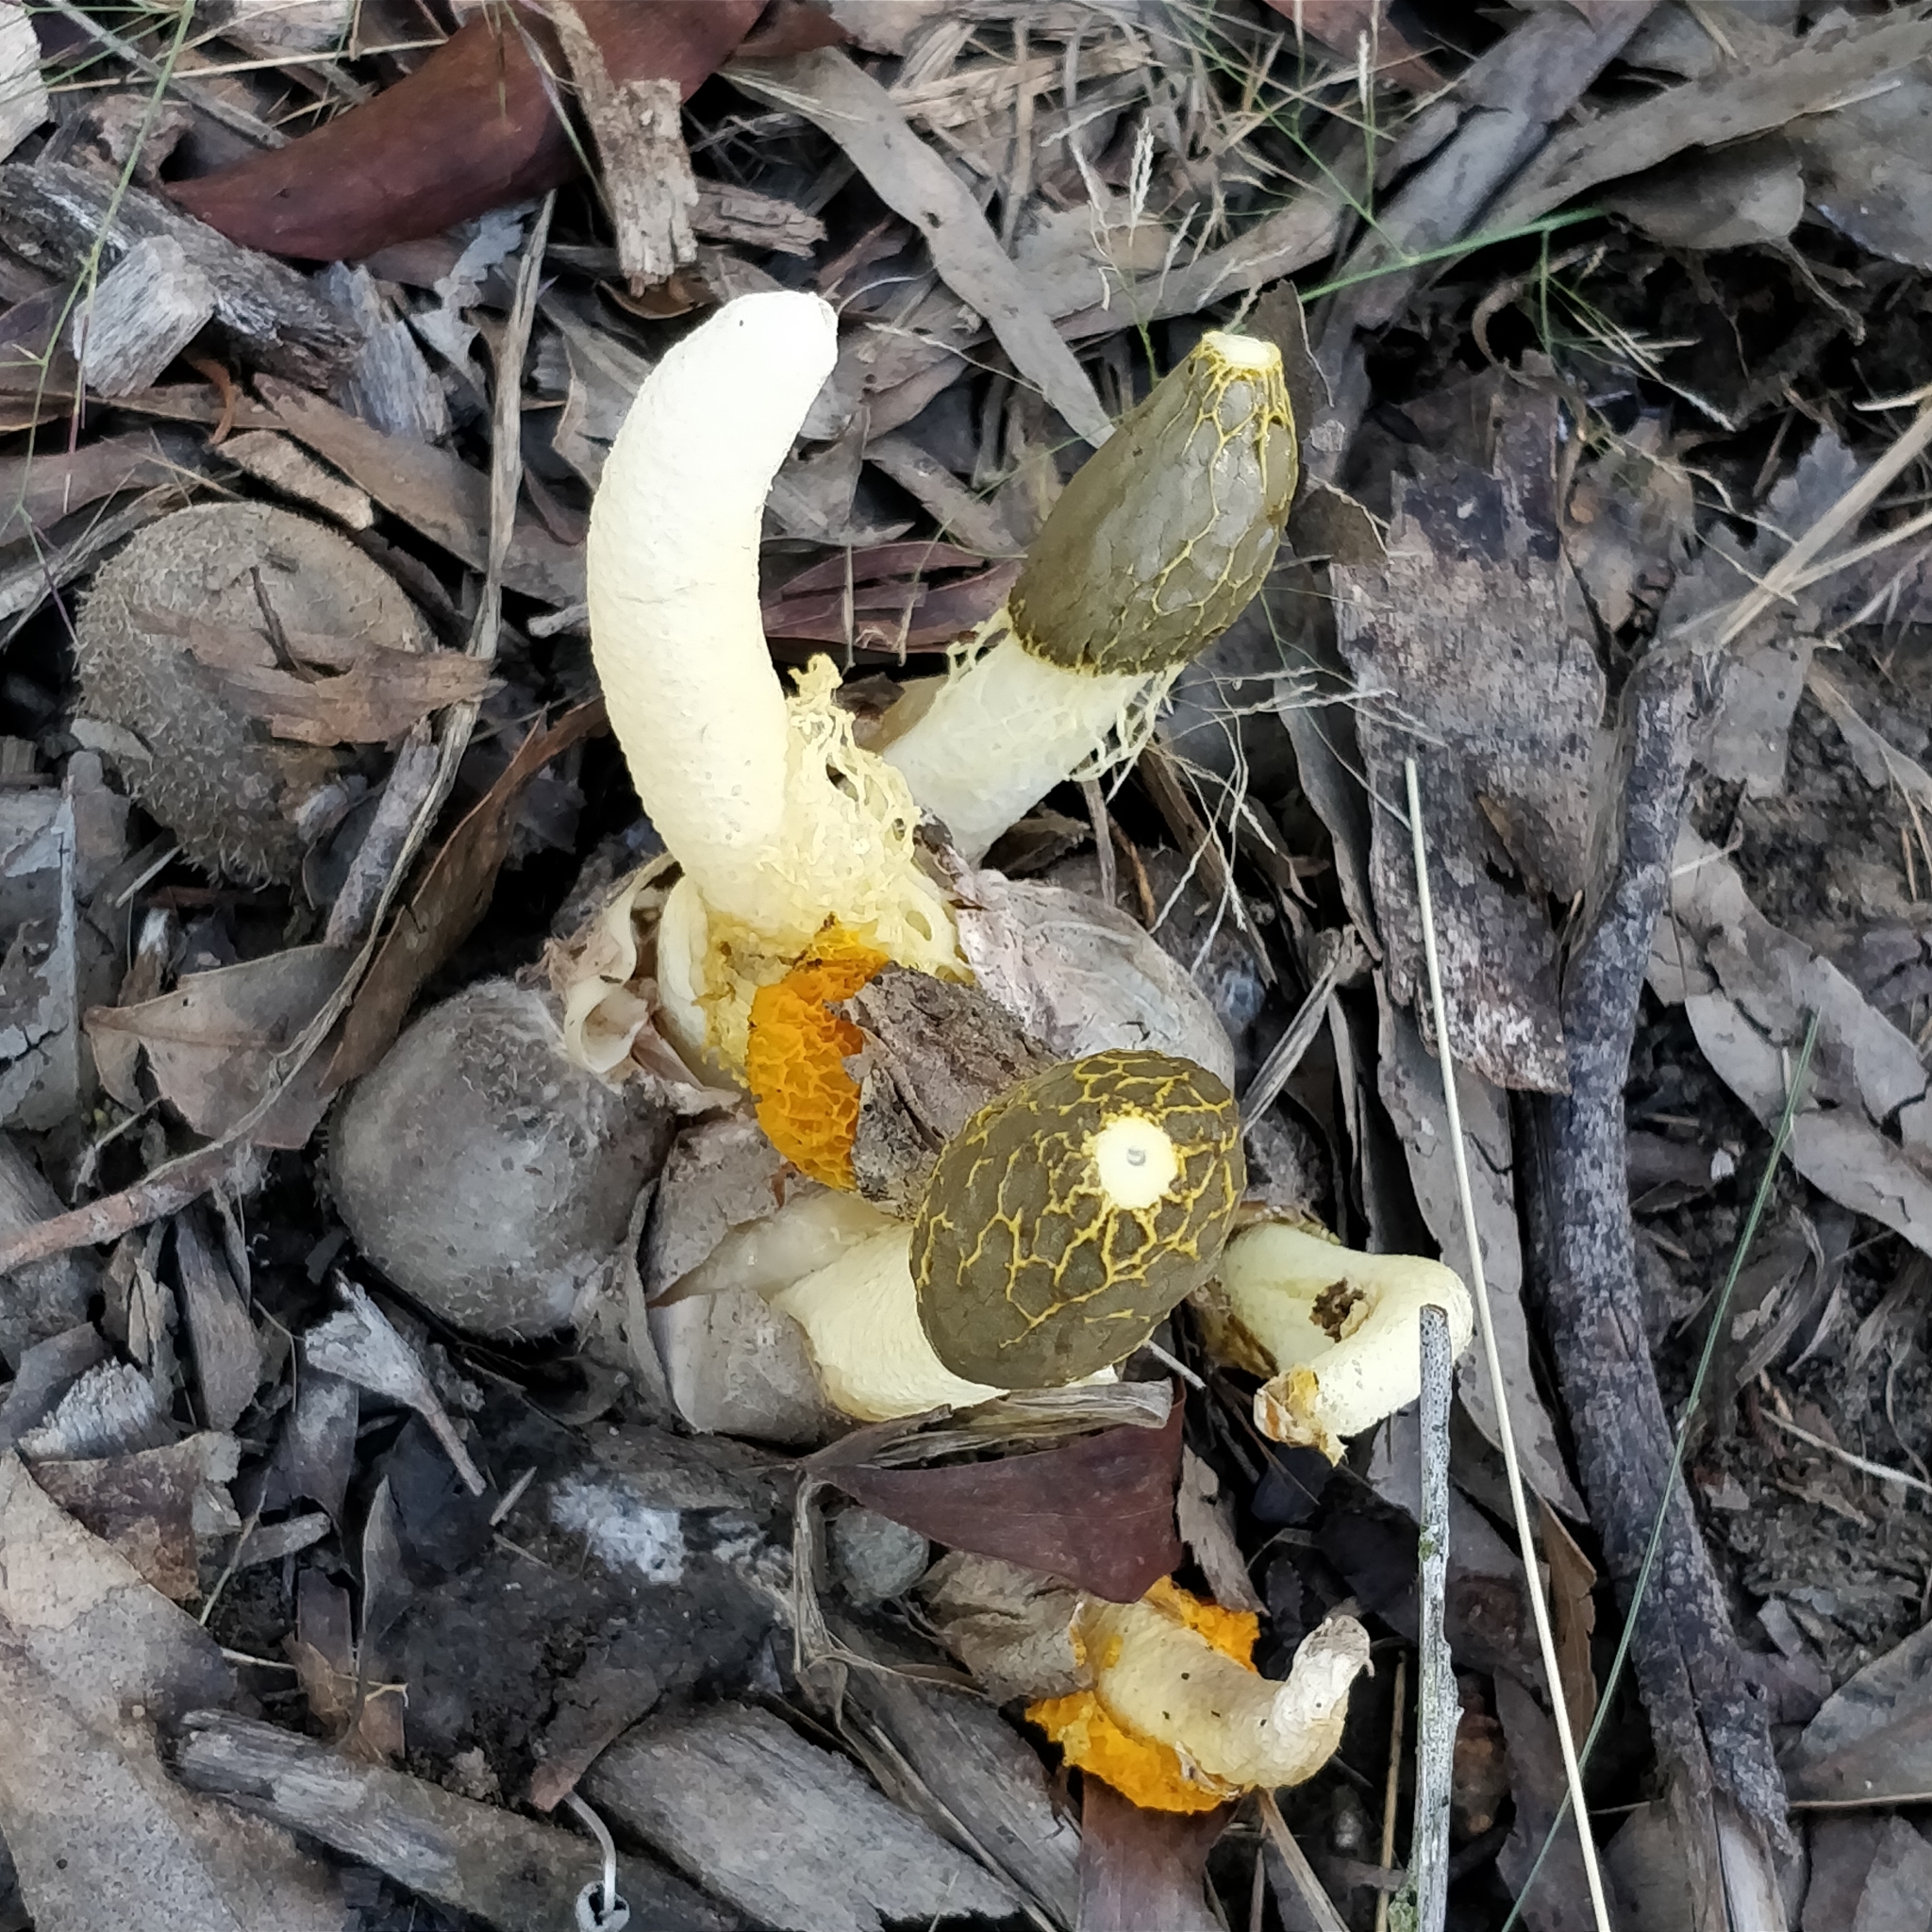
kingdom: Fungi
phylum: Basidiomycota
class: Agaricomycetes
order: Phallales
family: Phallaceae
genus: Phallus
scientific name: Phallus multicolor
